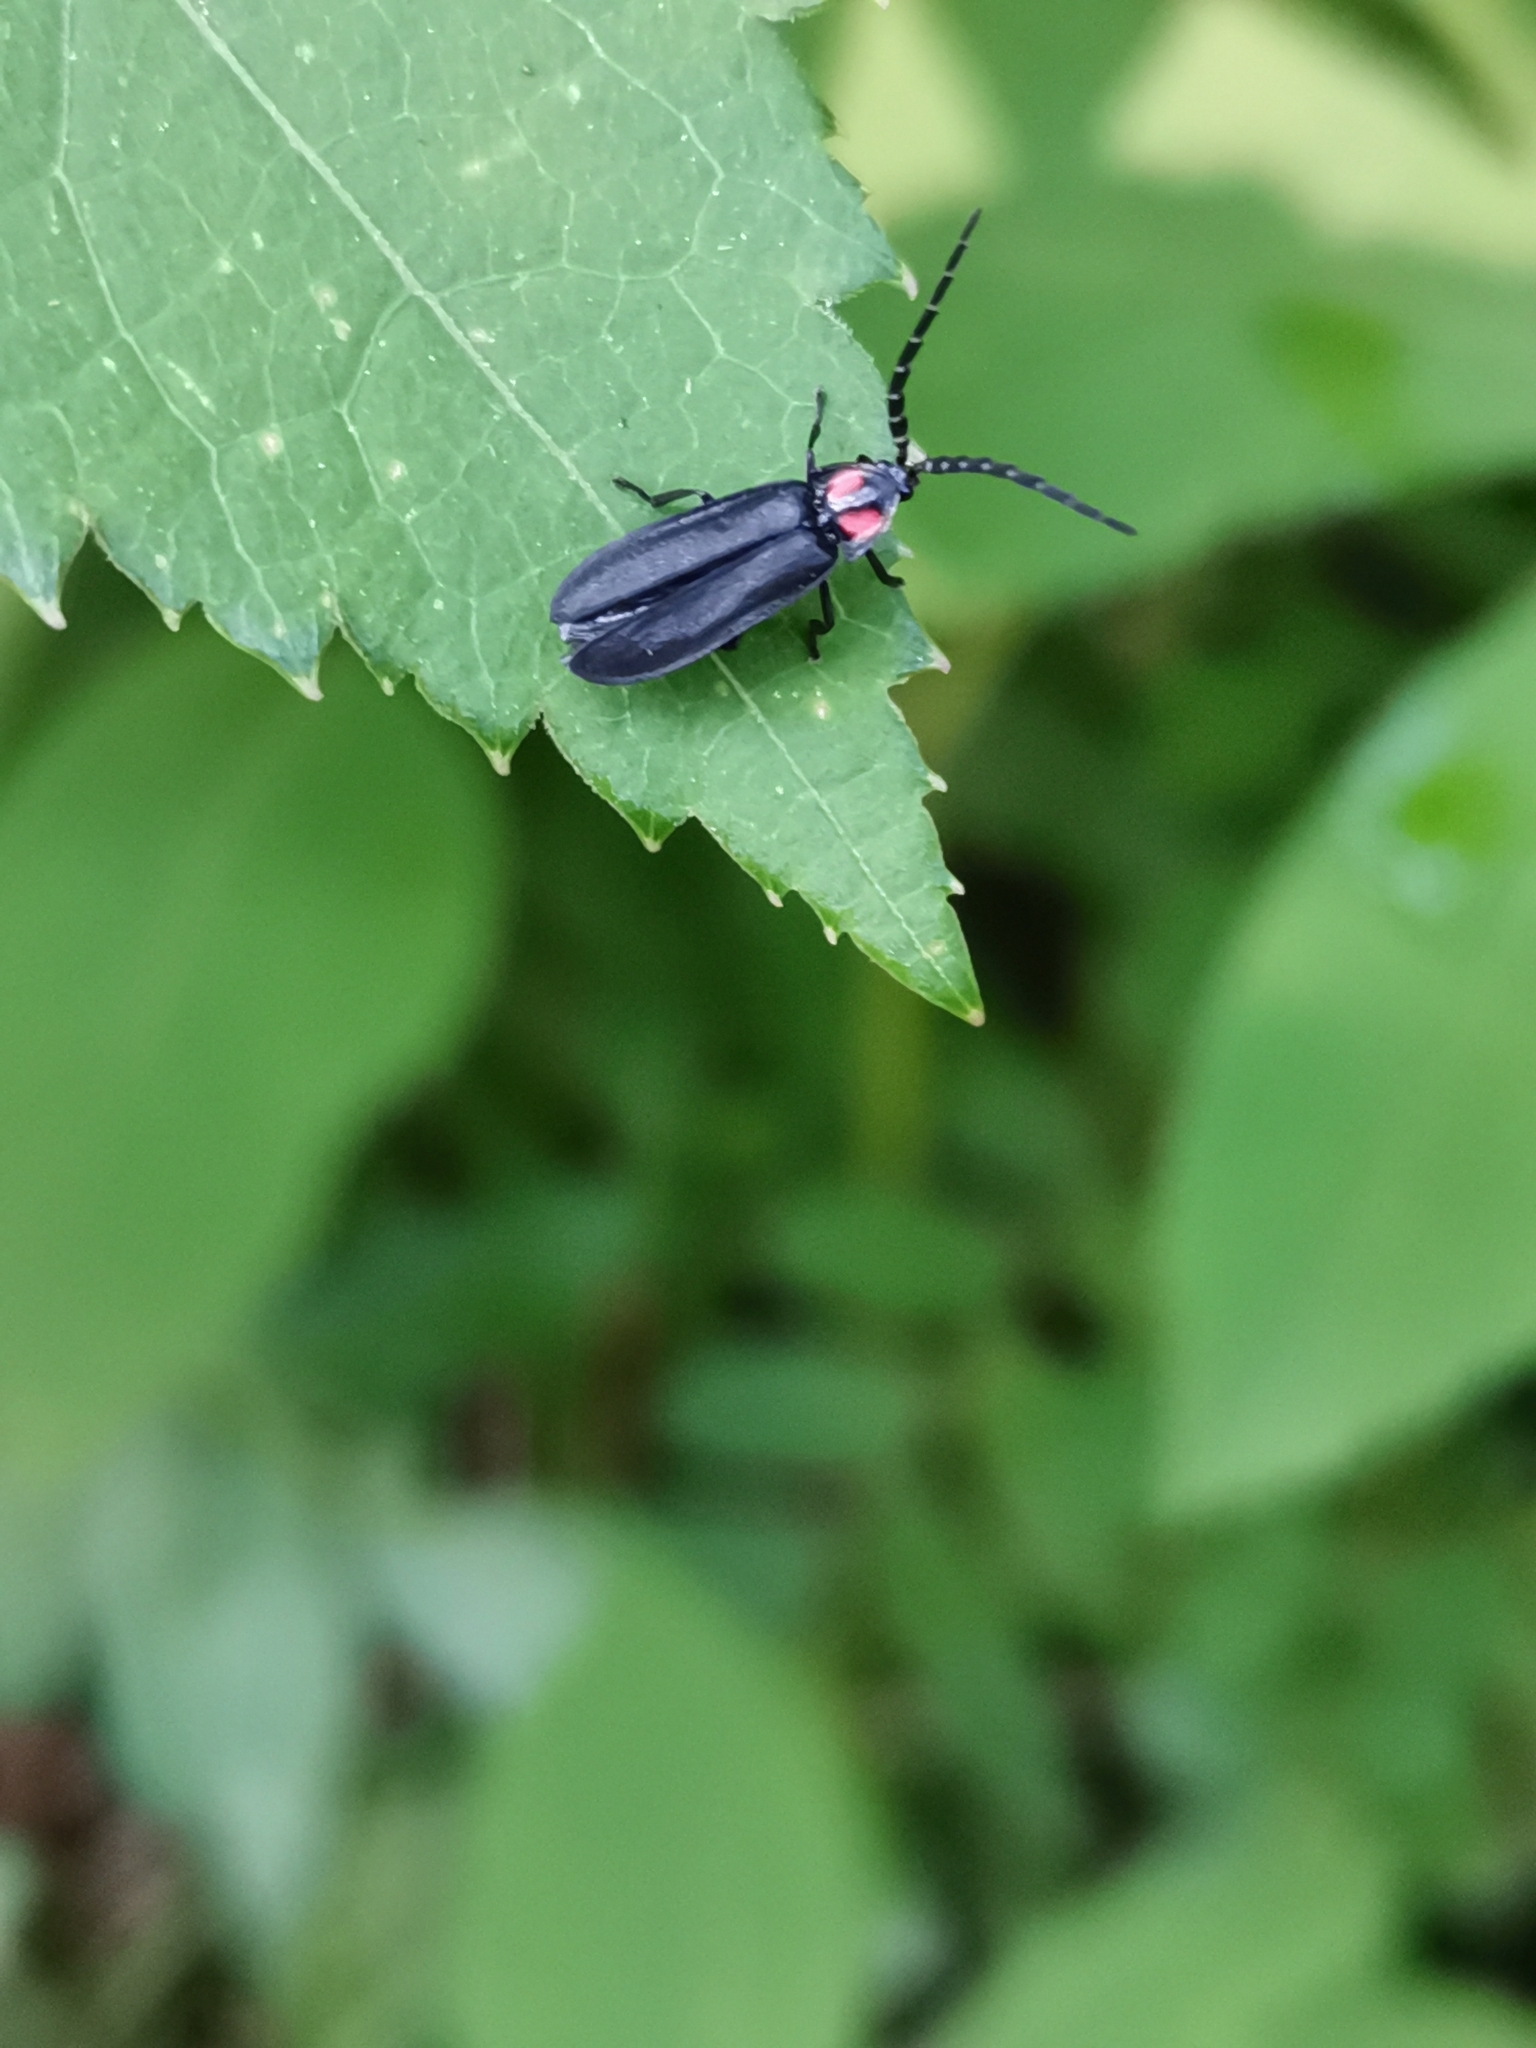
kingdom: Animalia
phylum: Arthropoda
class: Insecta
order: Coleoptera
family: Lampyridae
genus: Lucidina
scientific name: Lucidina biplagiata
